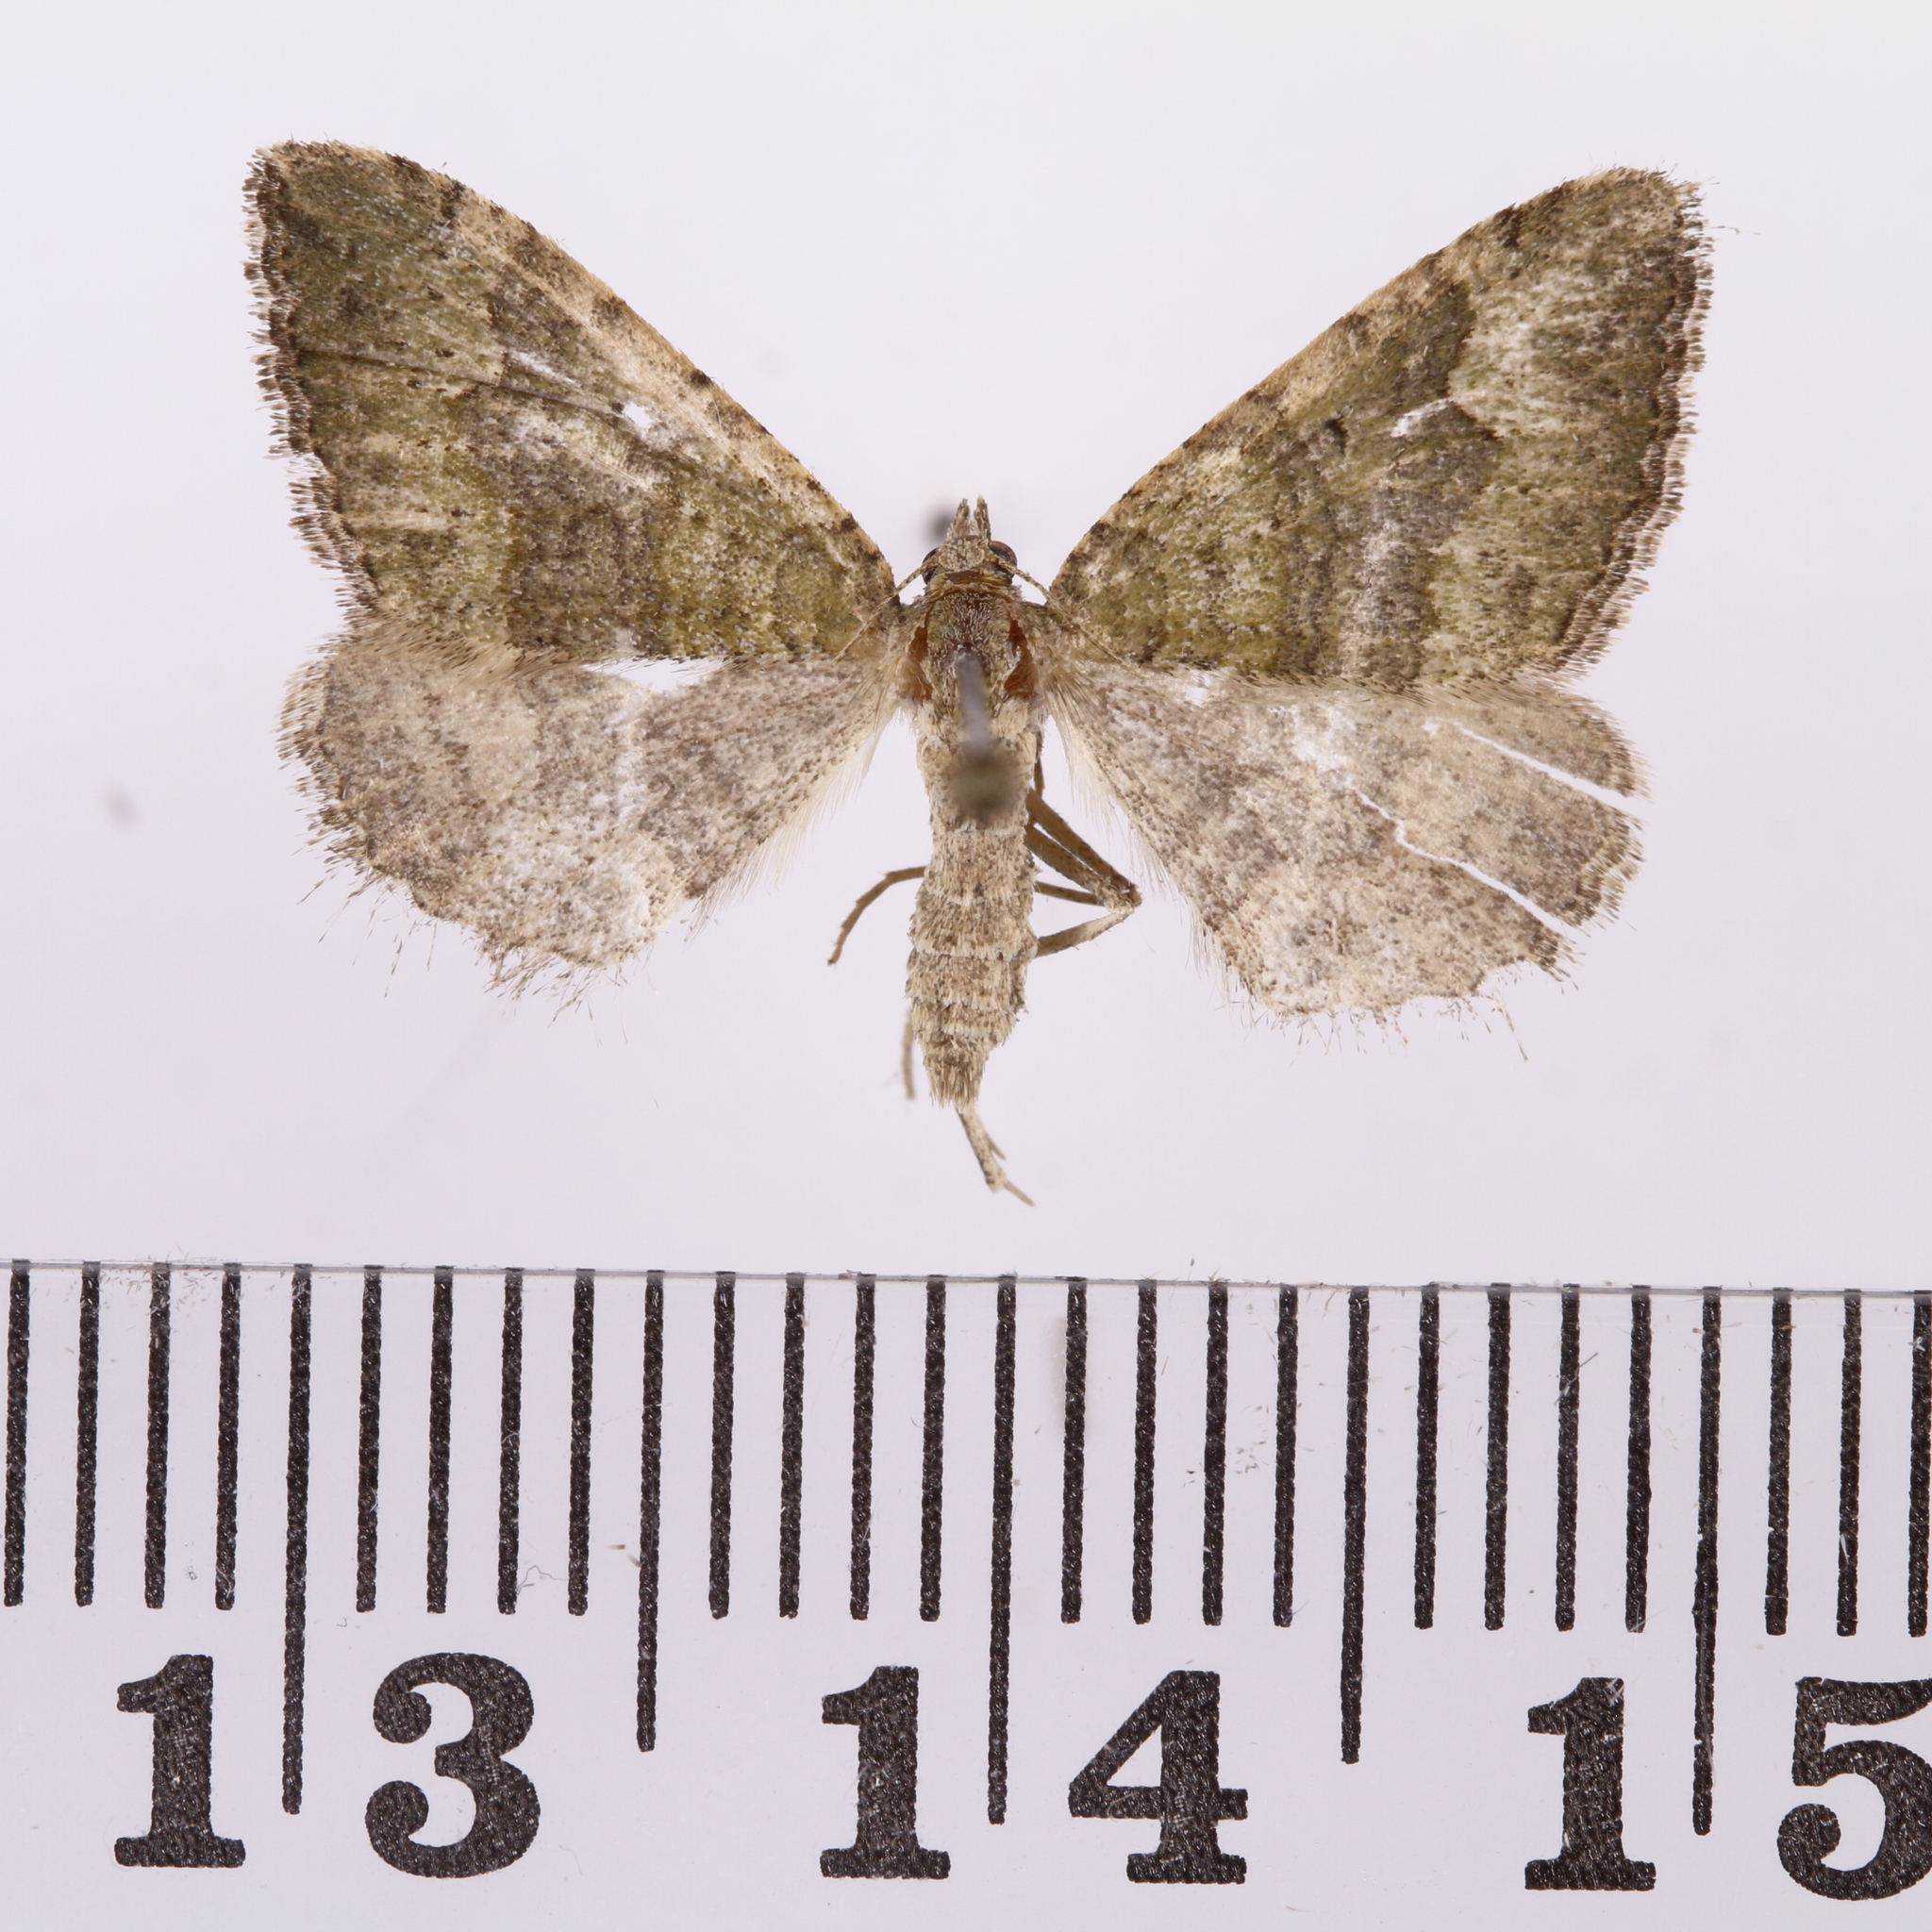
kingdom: Animalia
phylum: Arthropoda
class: Insecta
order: Lepidoptera
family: Geometridae
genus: Epyaxa
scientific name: Epyaxa rosearia
